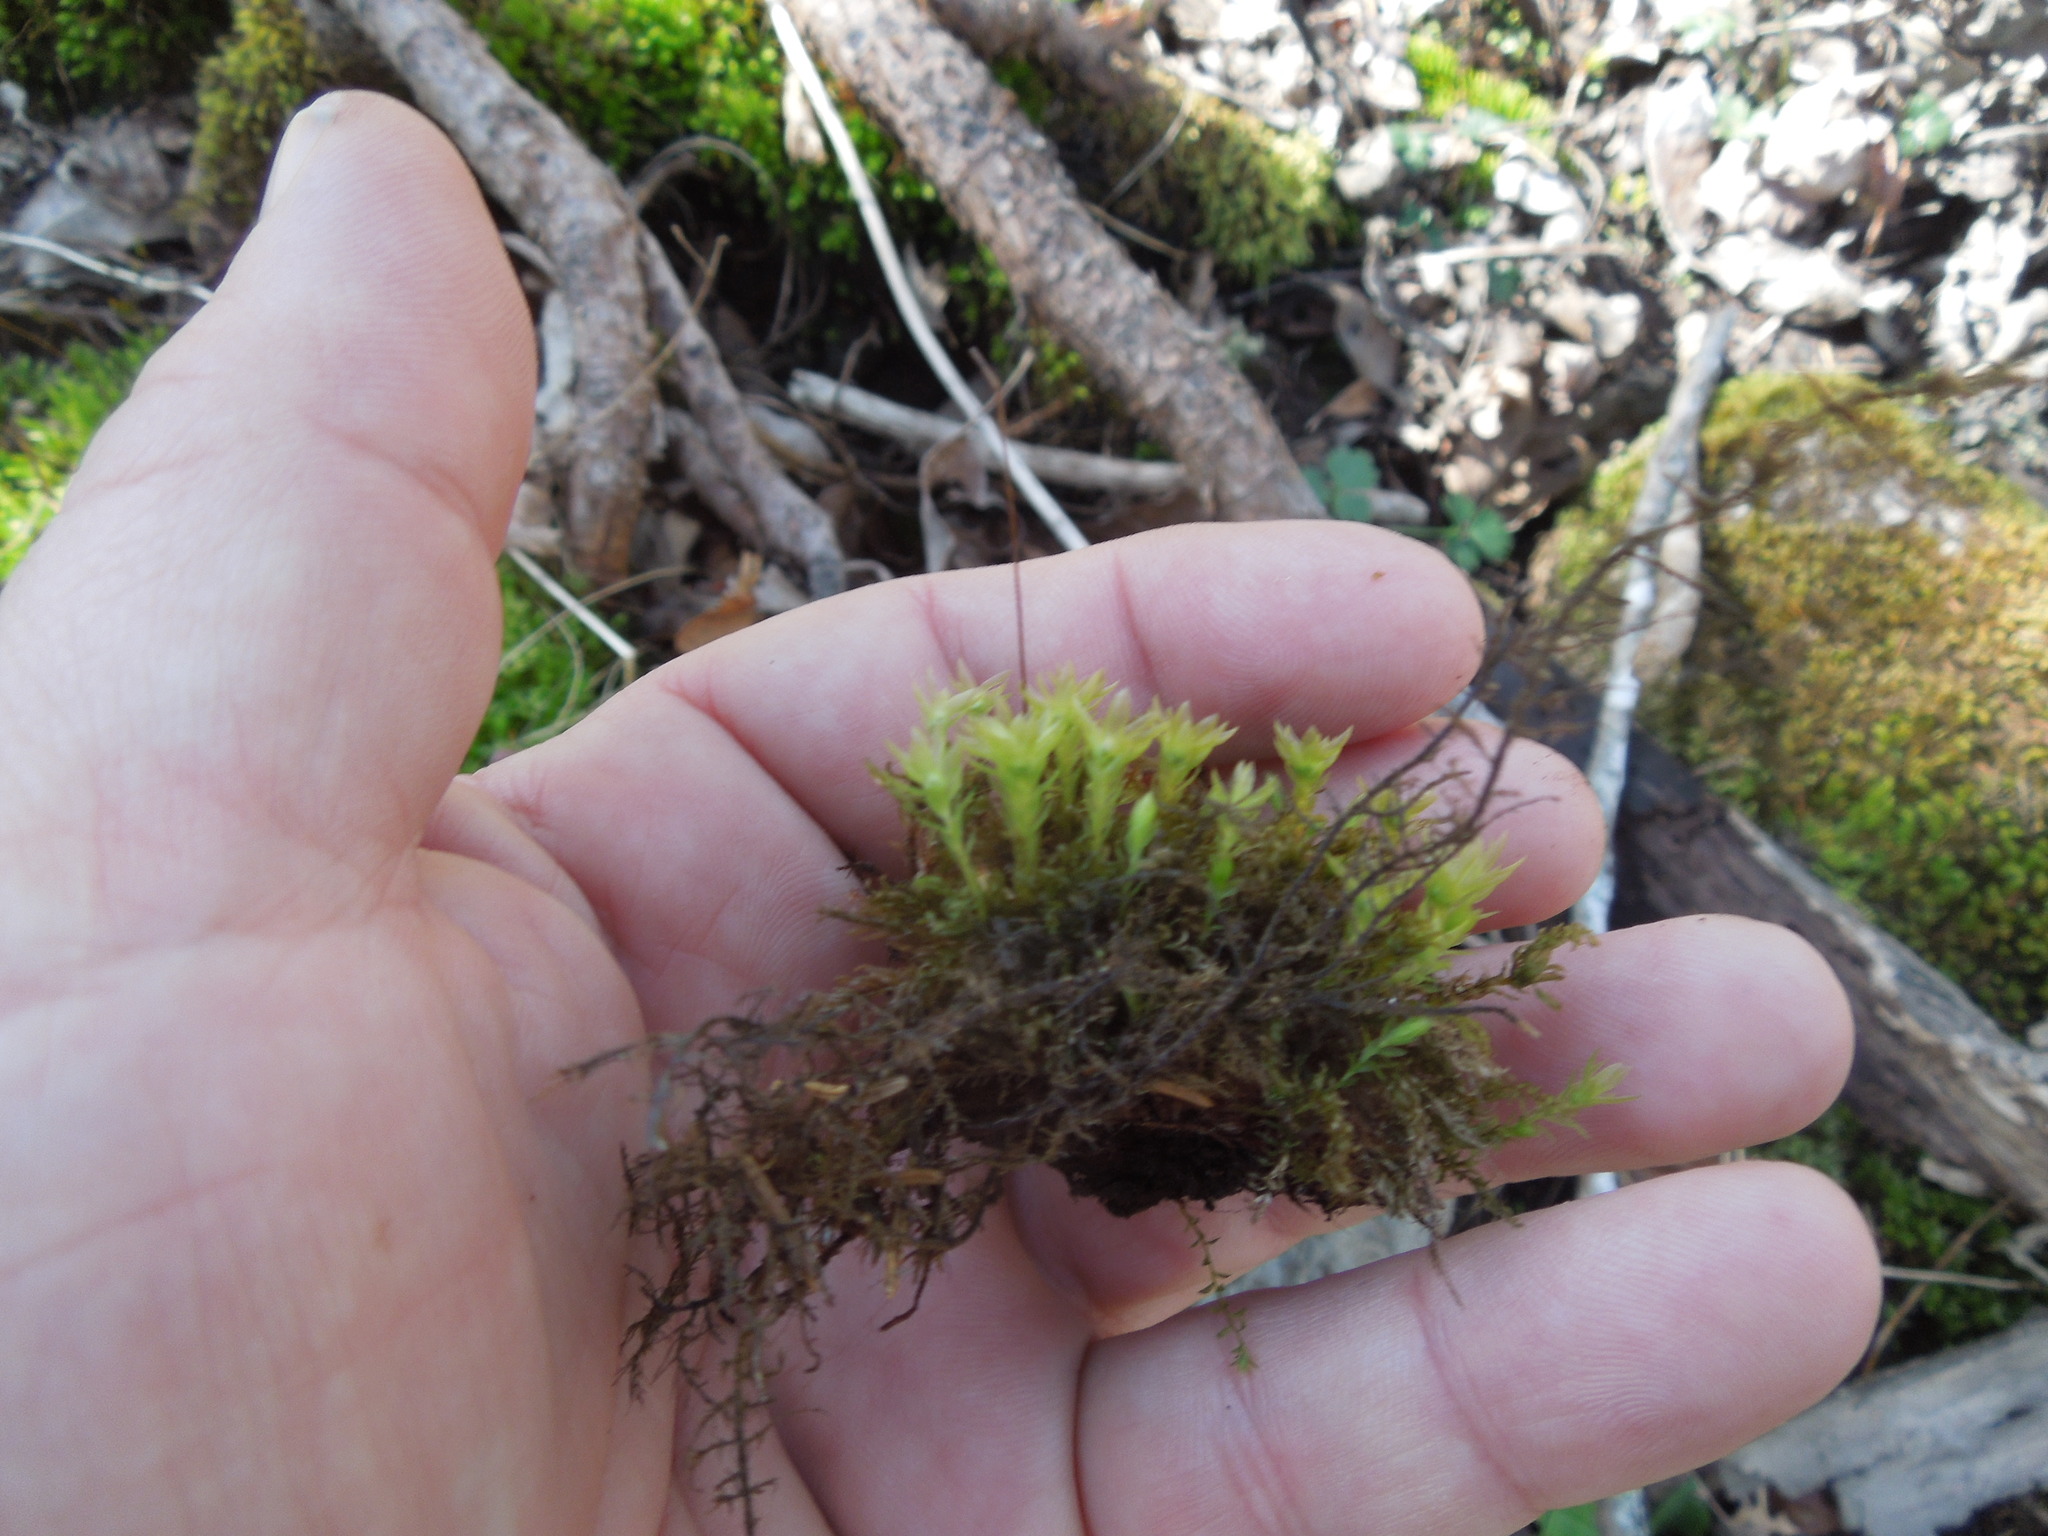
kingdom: Plantae
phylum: Bryophyta
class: Polytrichopsida
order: Polytrichales
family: Polytrichaceae
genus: Atrichum
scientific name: Atrichum
